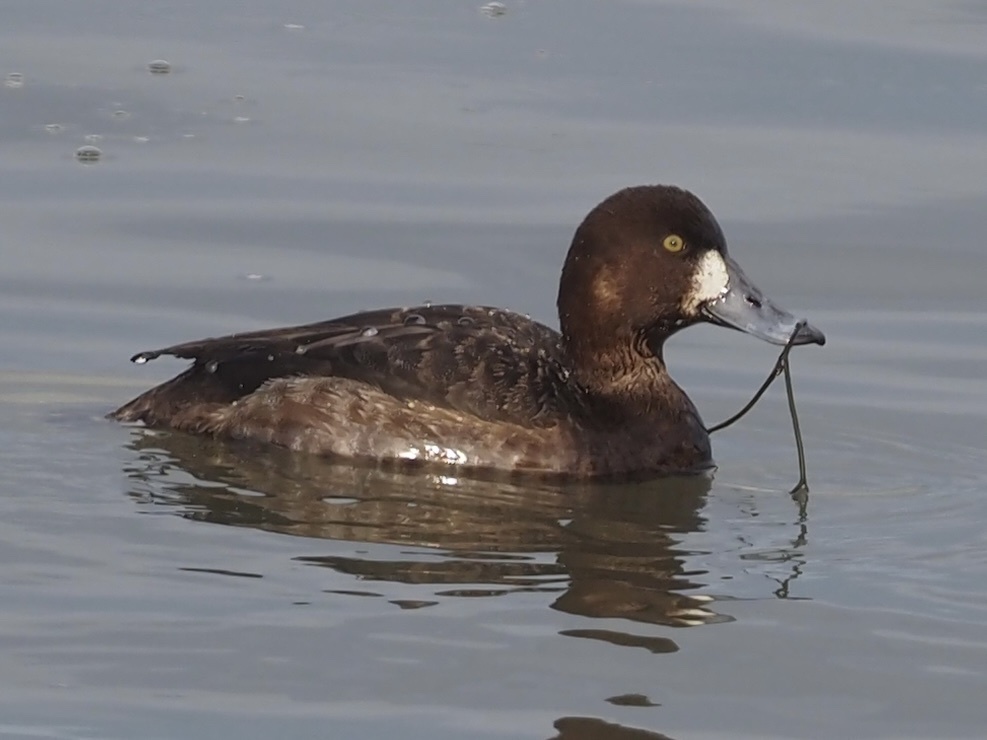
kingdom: Animalia
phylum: Chordata
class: Aves
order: Anseriformes
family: Anatidae
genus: Aythya
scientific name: Aythya marila
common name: Greater scaup
